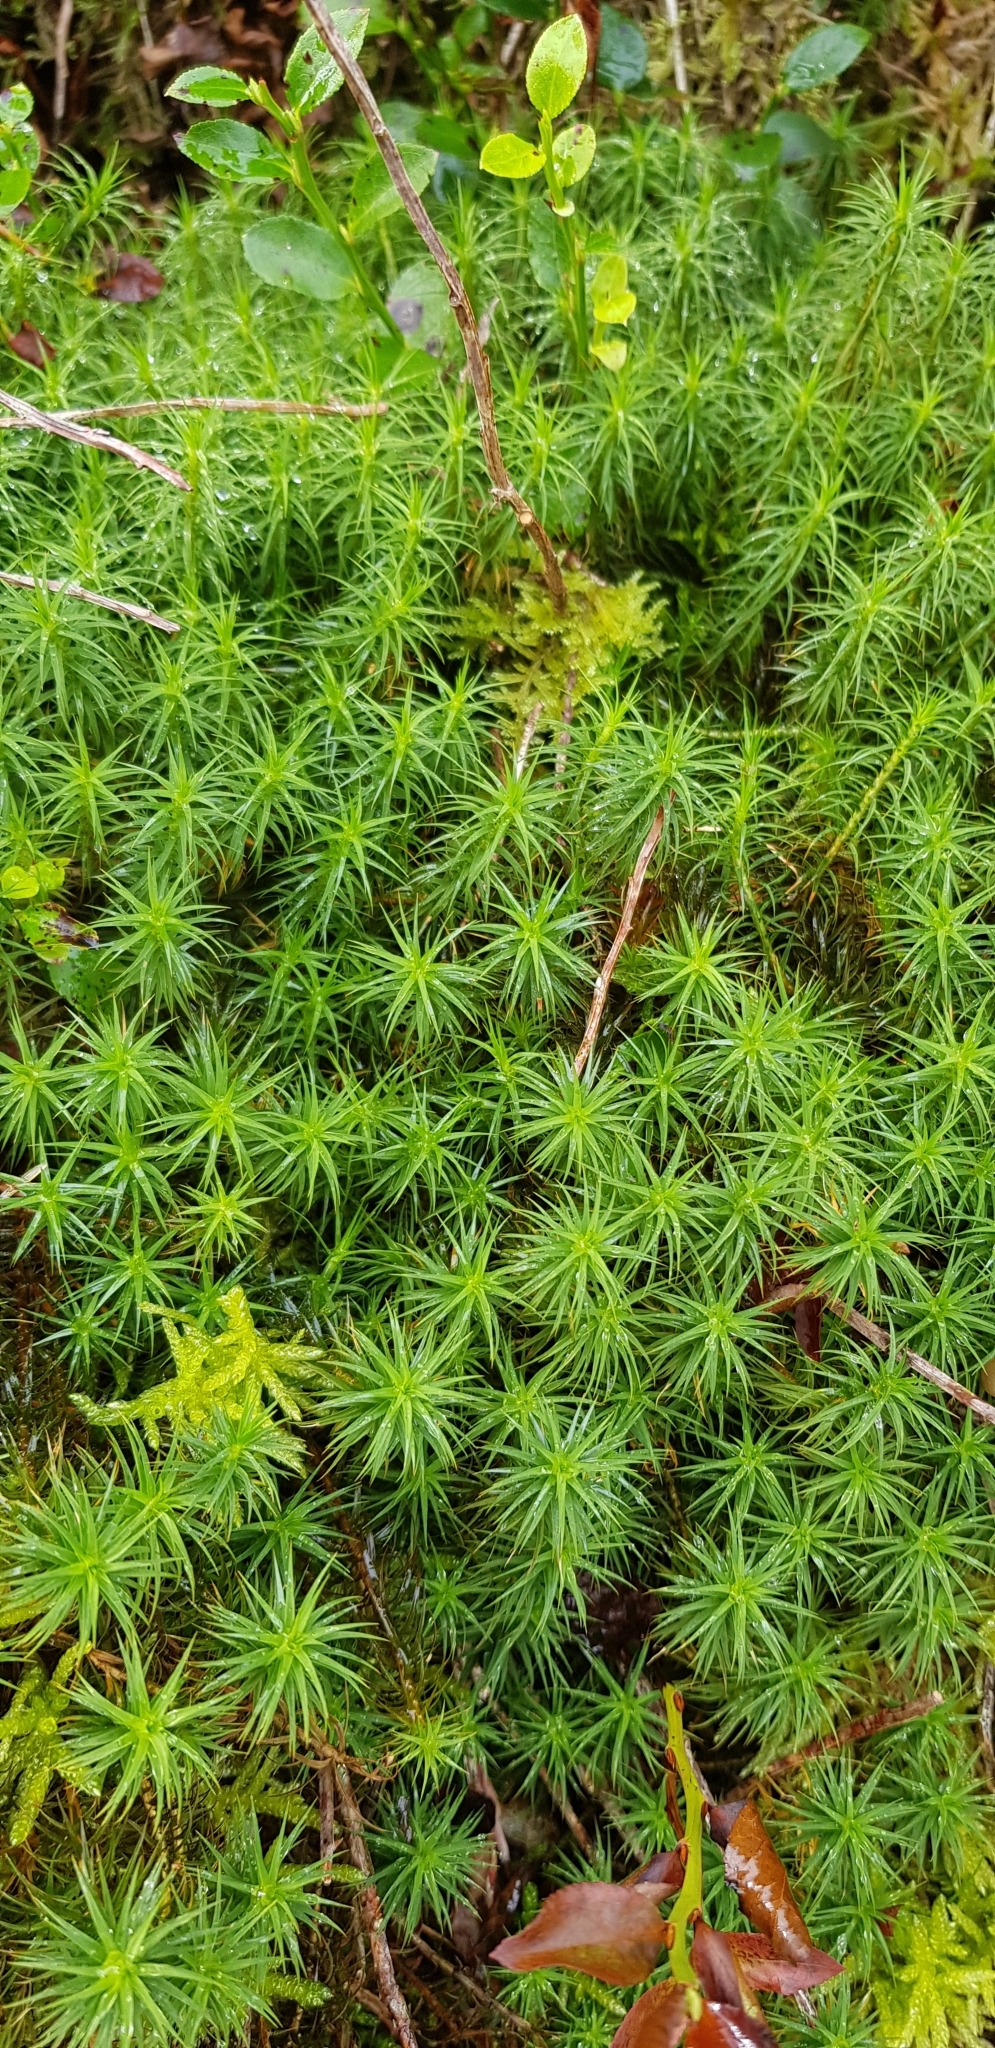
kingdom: Plantae
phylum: Bryophyta
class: Polytrichopsida
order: Polytrichales
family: Polytrichaceae
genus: Polytrichum
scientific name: Polytrichum formosum
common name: Bank haircap moss
